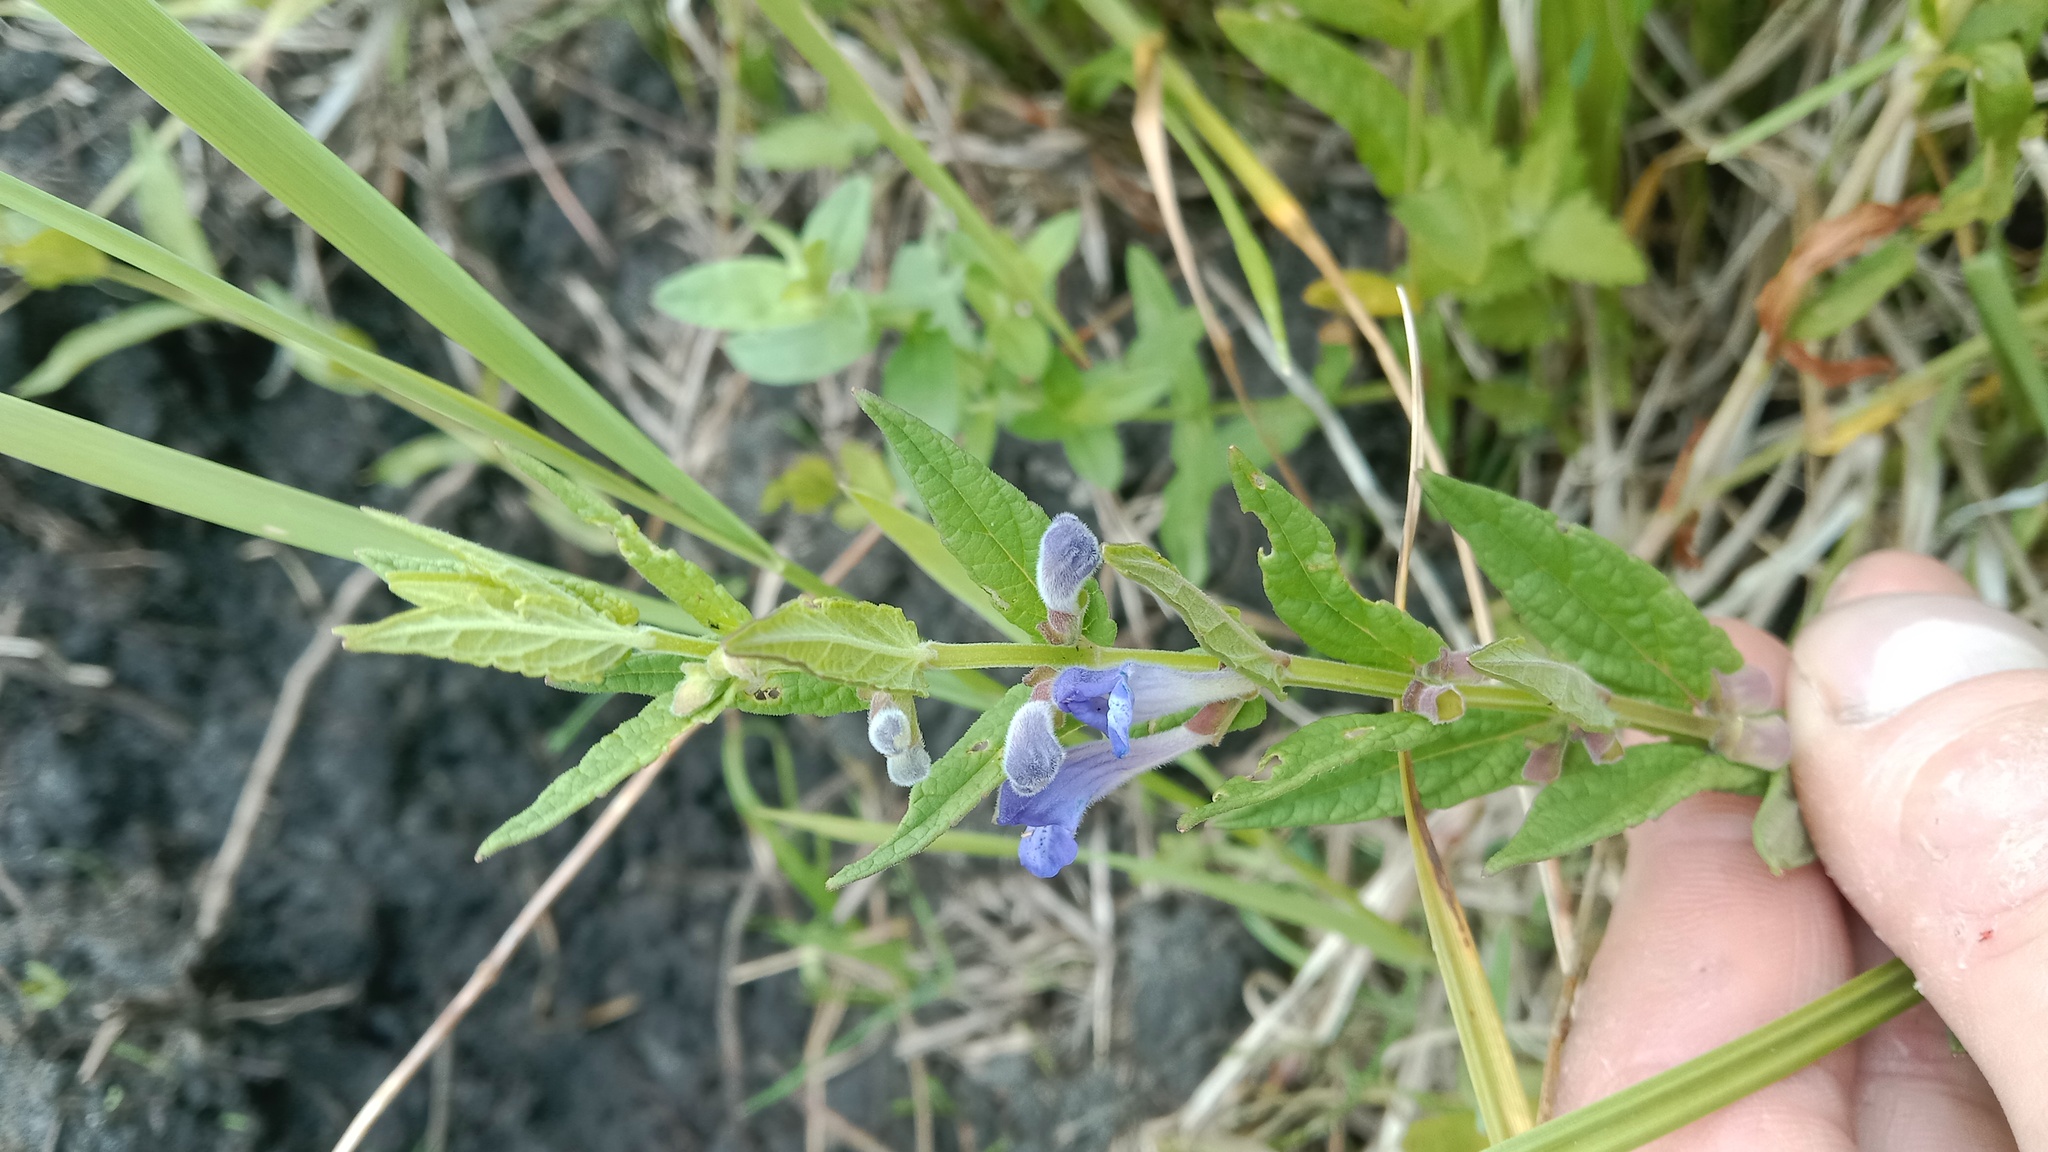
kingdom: Plantae
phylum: Tracheophyta
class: Magnoliopsida
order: Lamiales
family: Lamiaceae
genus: Scutellaria
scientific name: Scutellaria galericulata
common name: Skullcap
